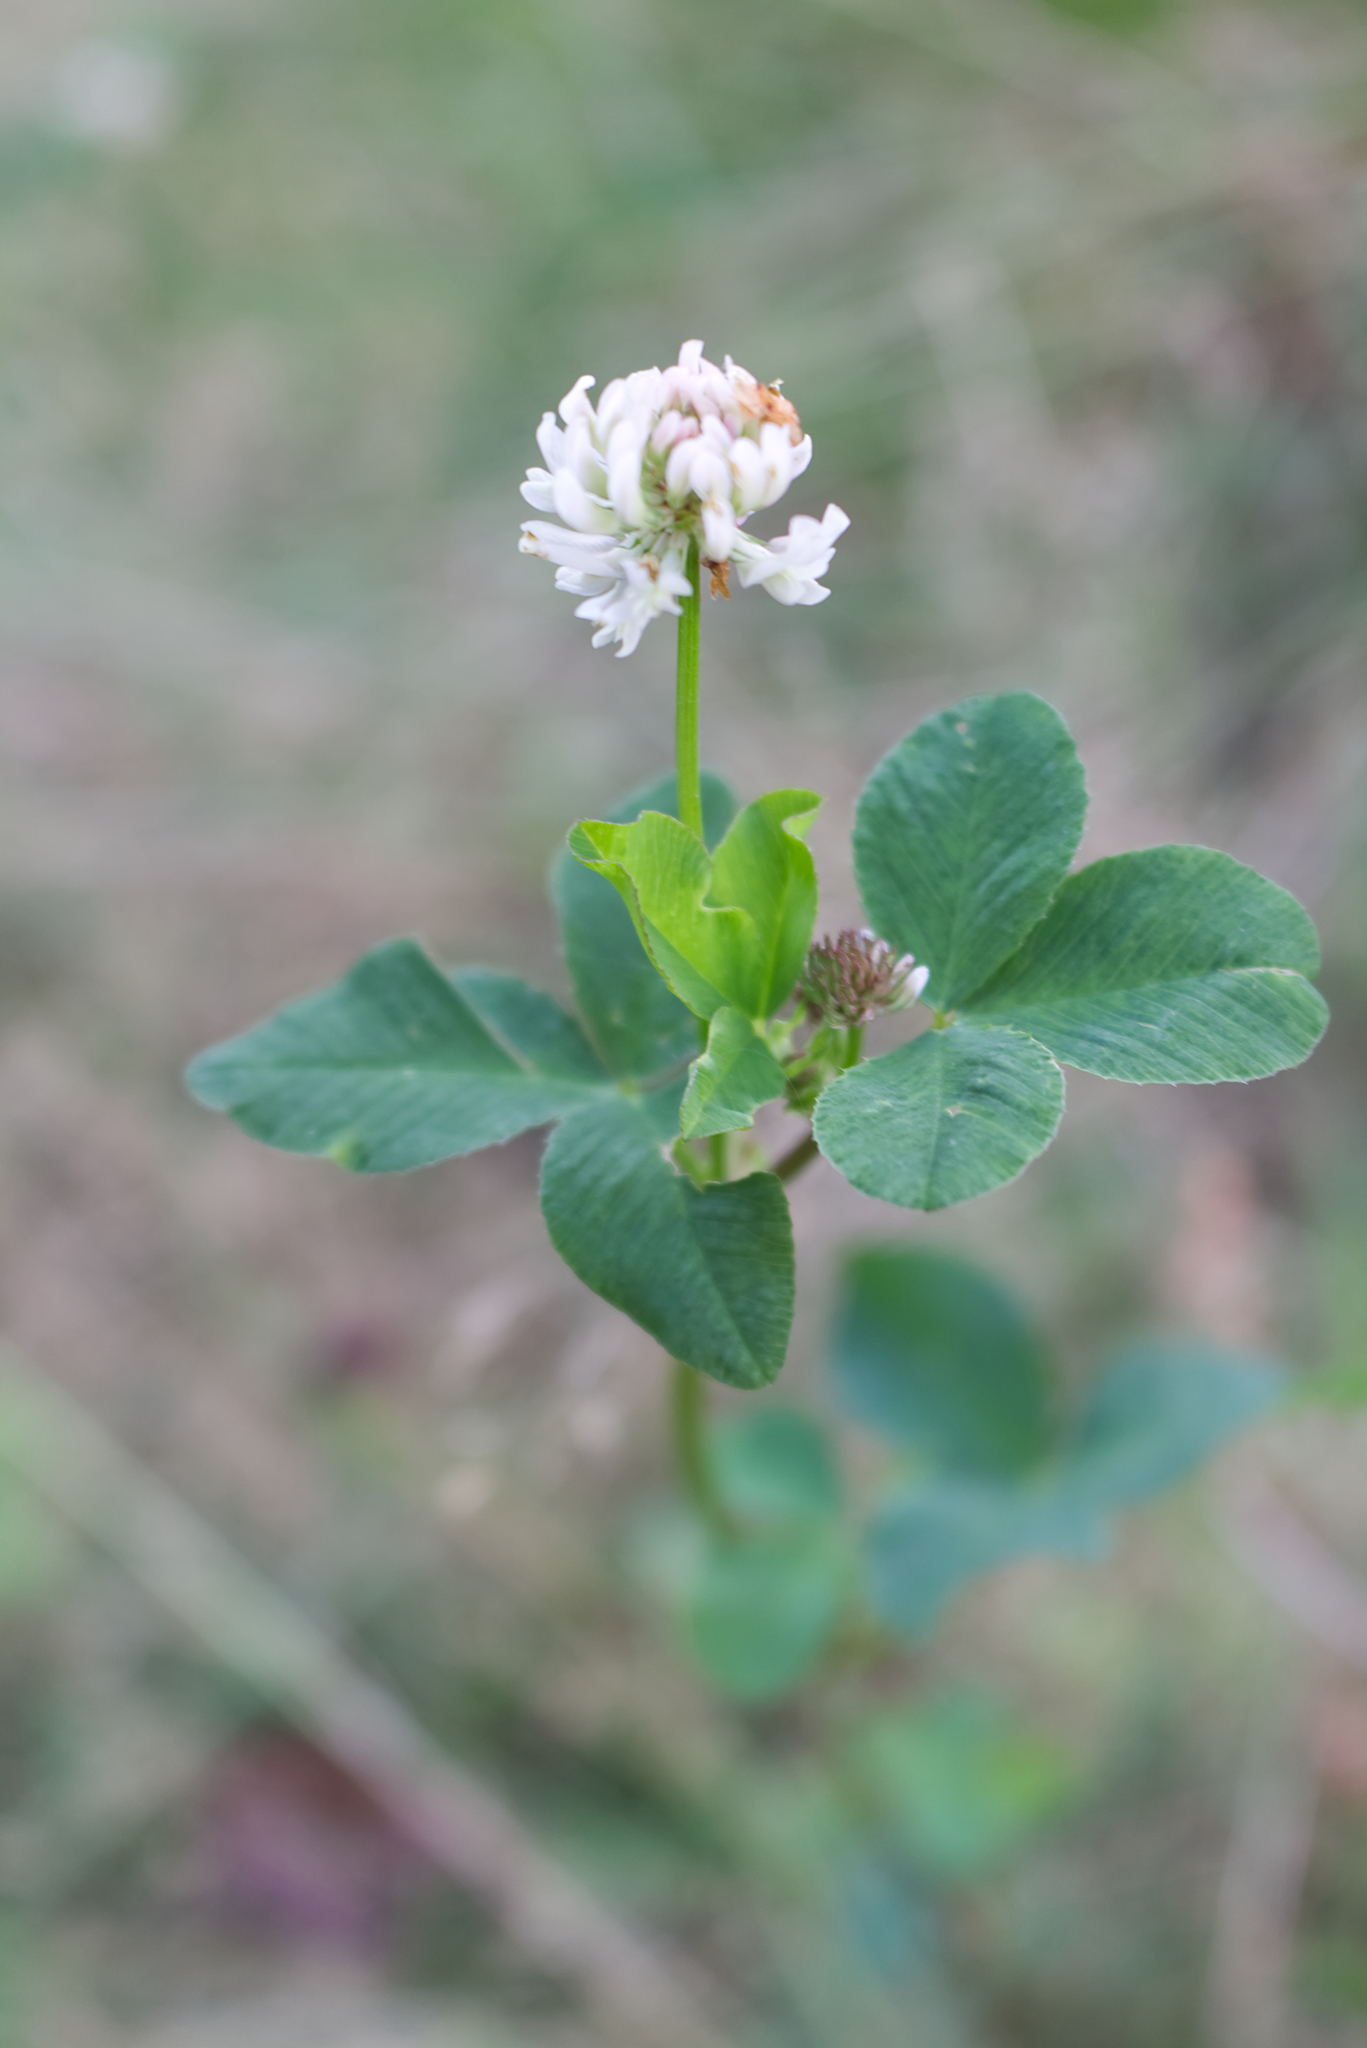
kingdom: Plantae
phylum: Tracheophyta
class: Magnoliopsida
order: Fabales
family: Fabaceae
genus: Trifolium
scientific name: Trifolium hybridum
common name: Alsike clover
